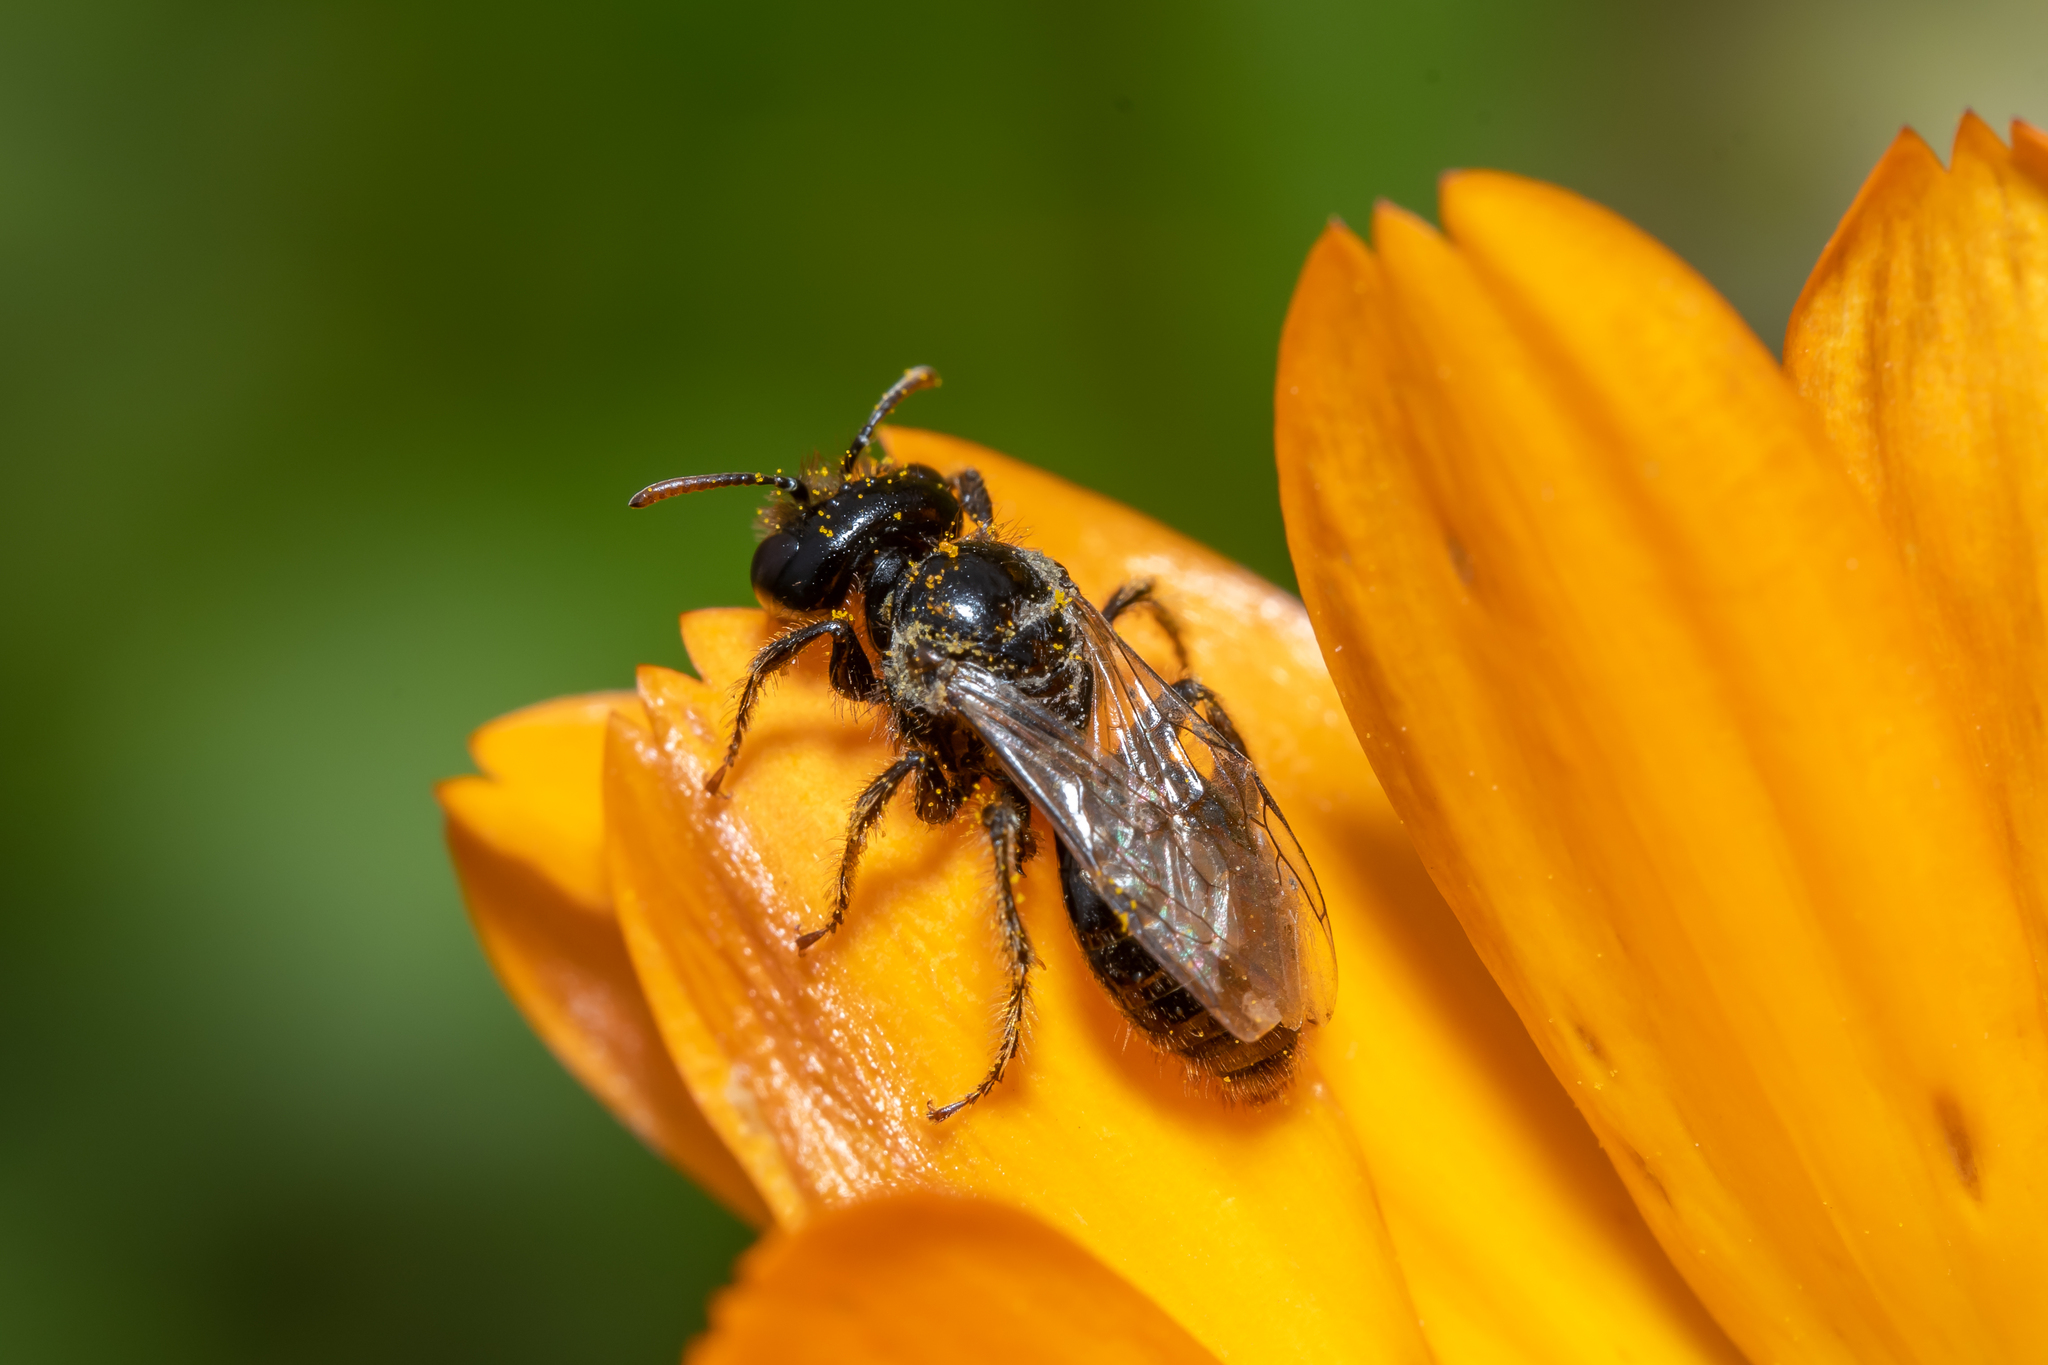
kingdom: Animalia
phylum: Arthropoda
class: Insecta
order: Hymenoptera
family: Andrenidae
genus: Panurgus
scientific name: Panurgus calcaratus
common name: Small shaggy bee
